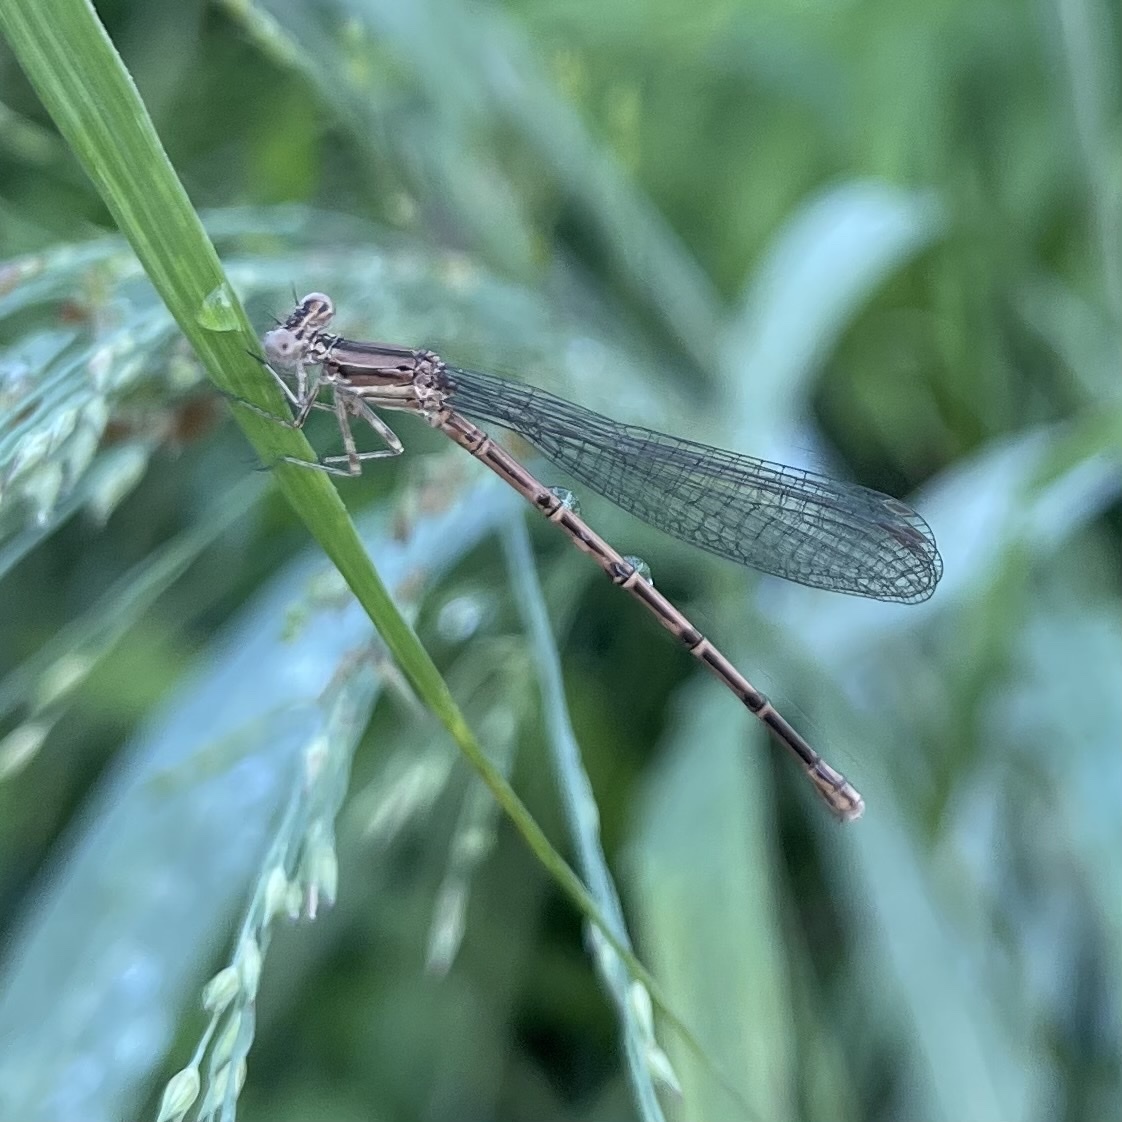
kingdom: Animalia
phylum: Arthropoda
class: Insecta
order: Odonata
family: Coenagrionidae
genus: Argia
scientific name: Argia fumipennis
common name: Variable dancer
